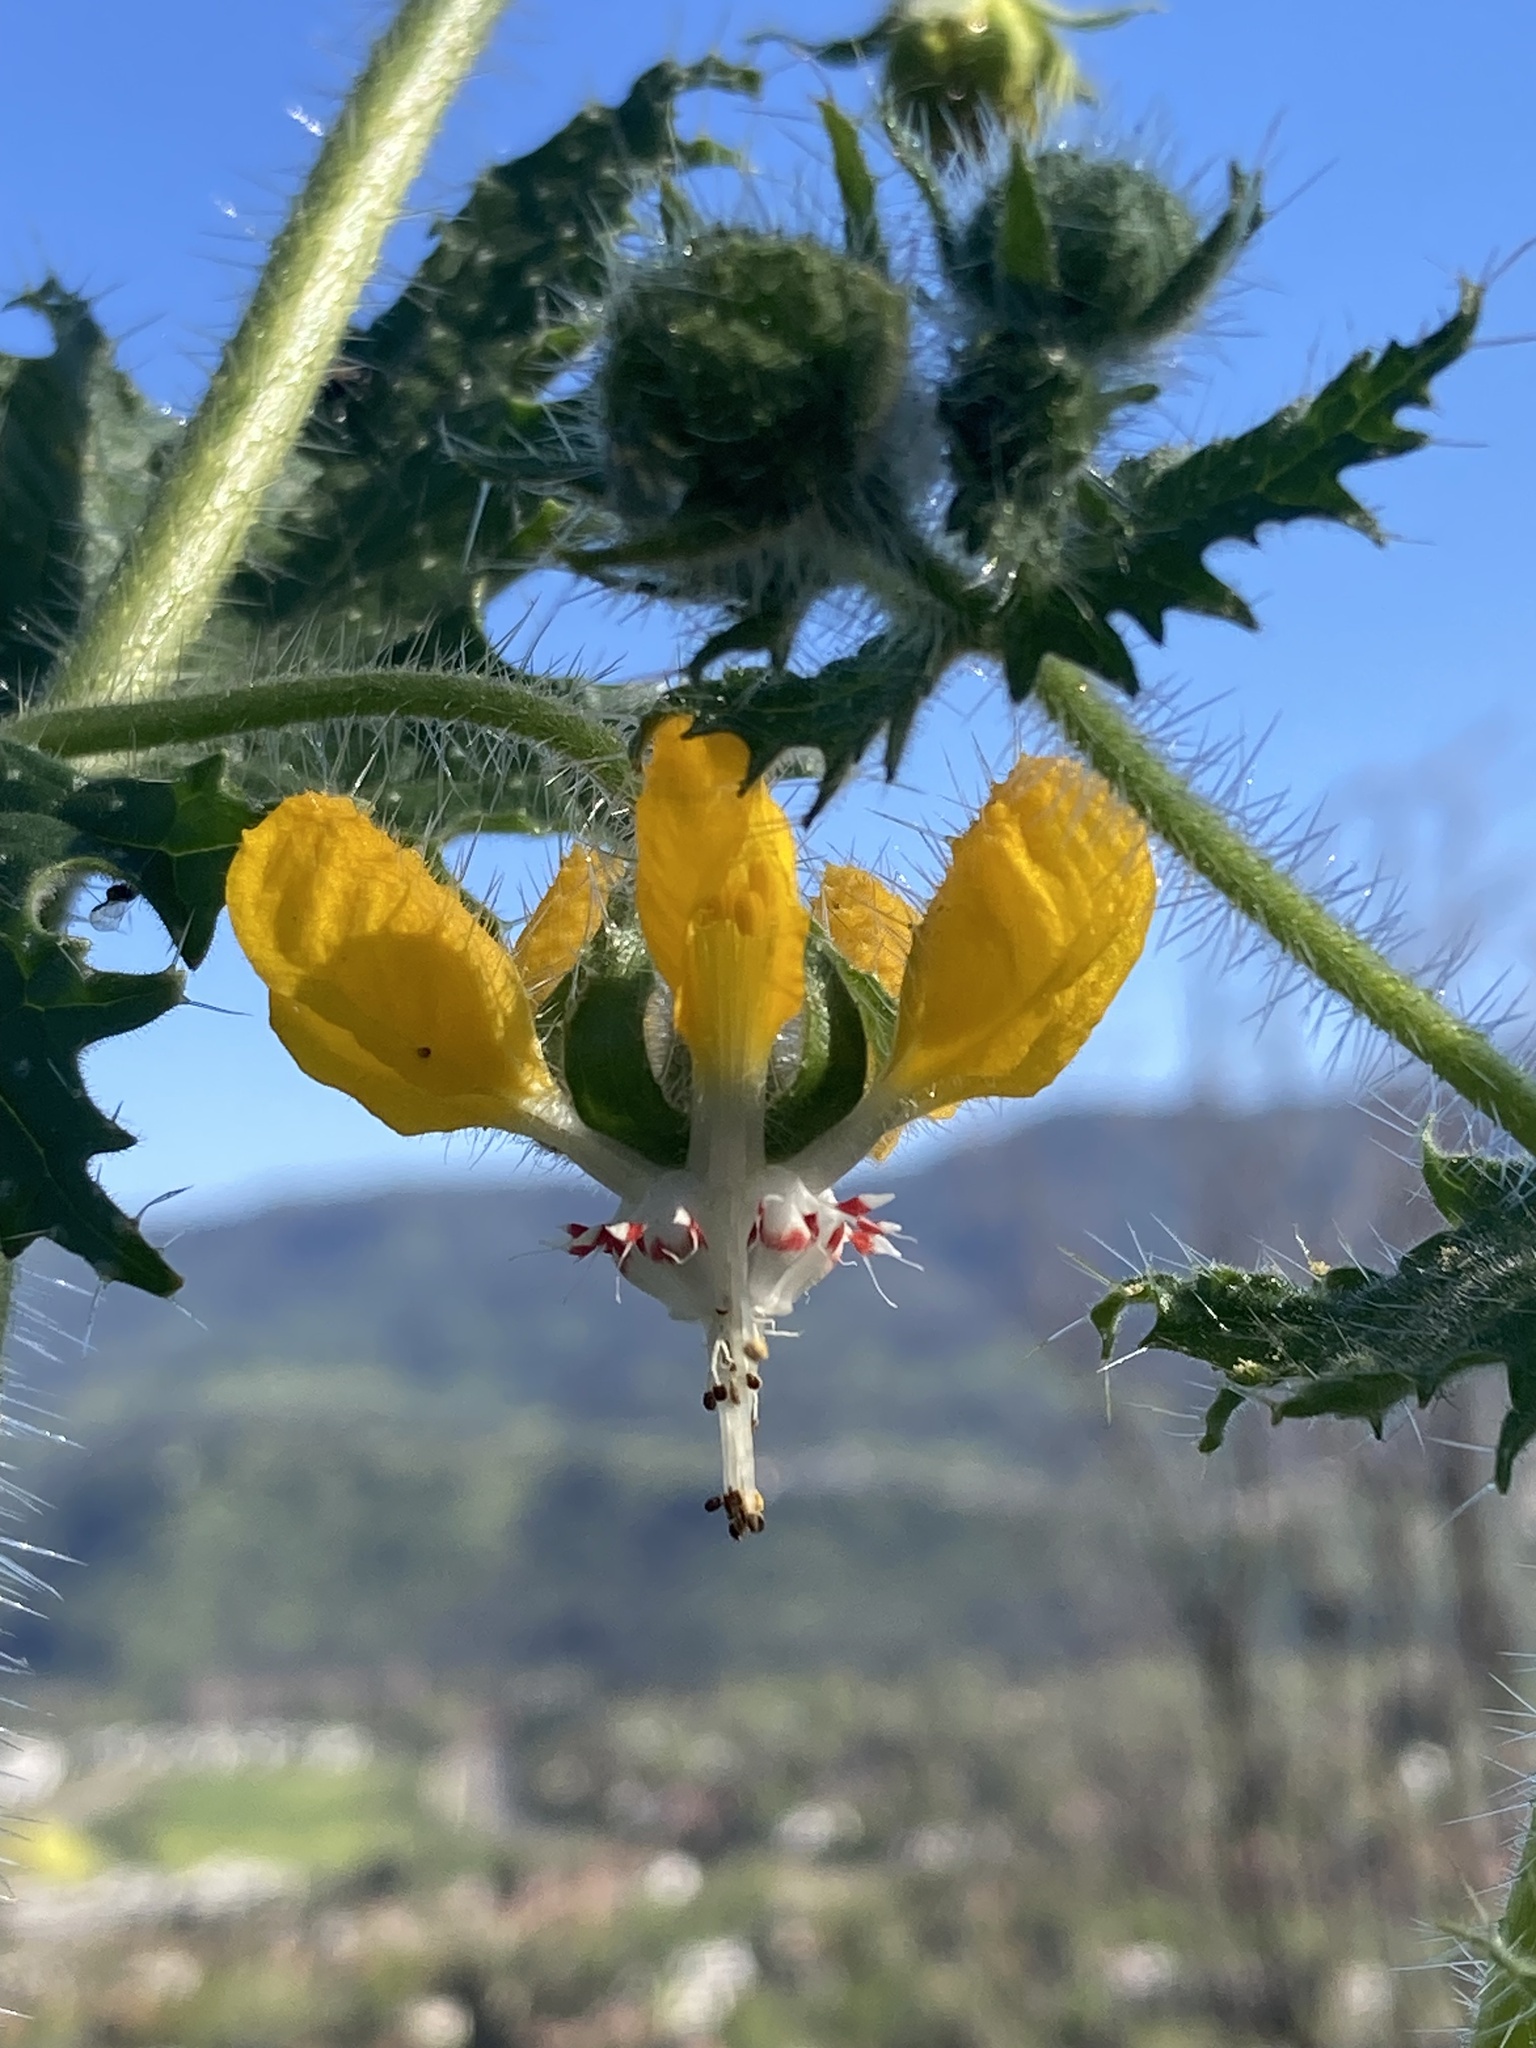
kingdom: Plantae
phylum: Tracheophyta
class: Magnoliopsida
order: Cornales
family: Loasaceae
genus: Loasa
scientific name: Loasa placei
